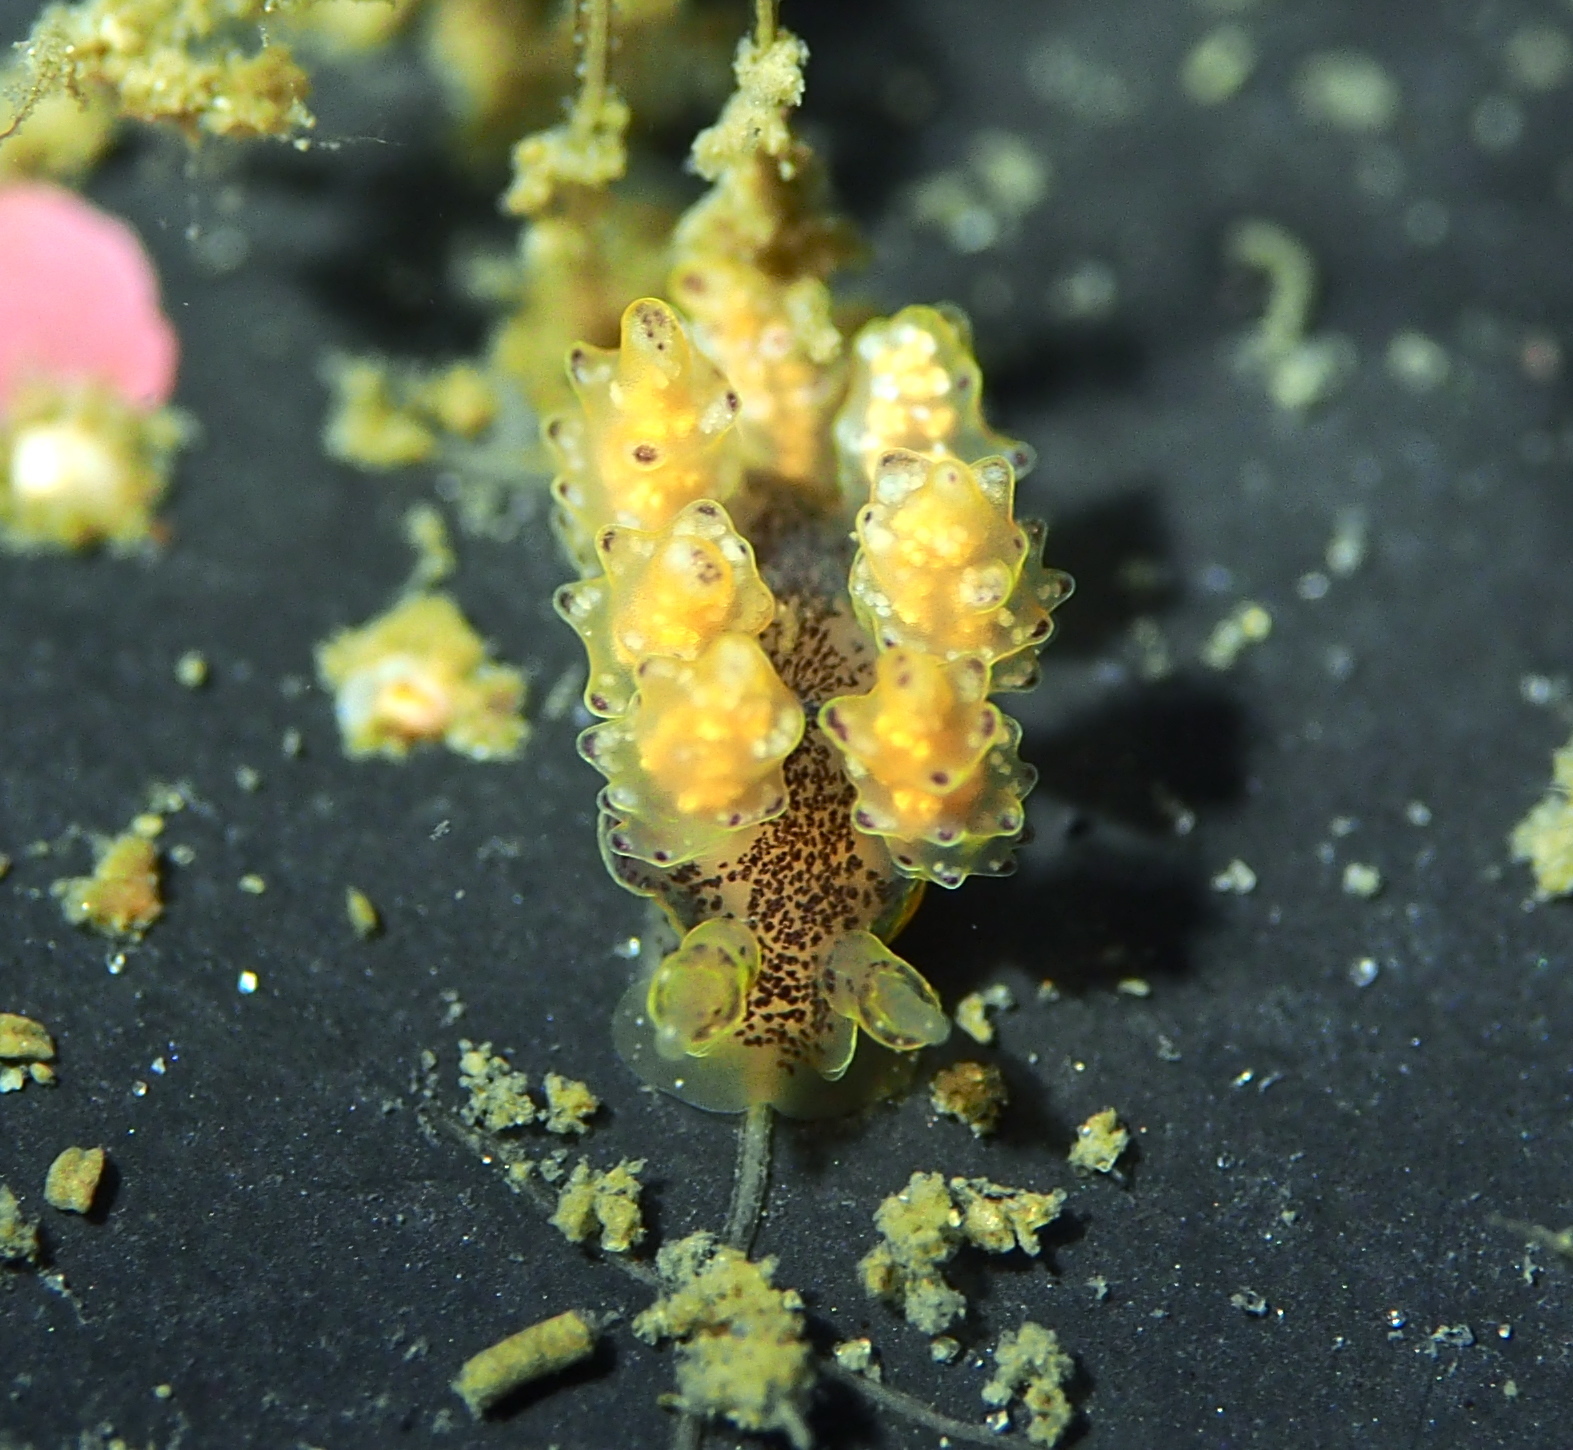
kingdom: Animalia
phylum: Mollusca
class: Gastropoda
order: Nudibranchia
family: Dotidae
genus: Doto
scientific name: Doto maculata
